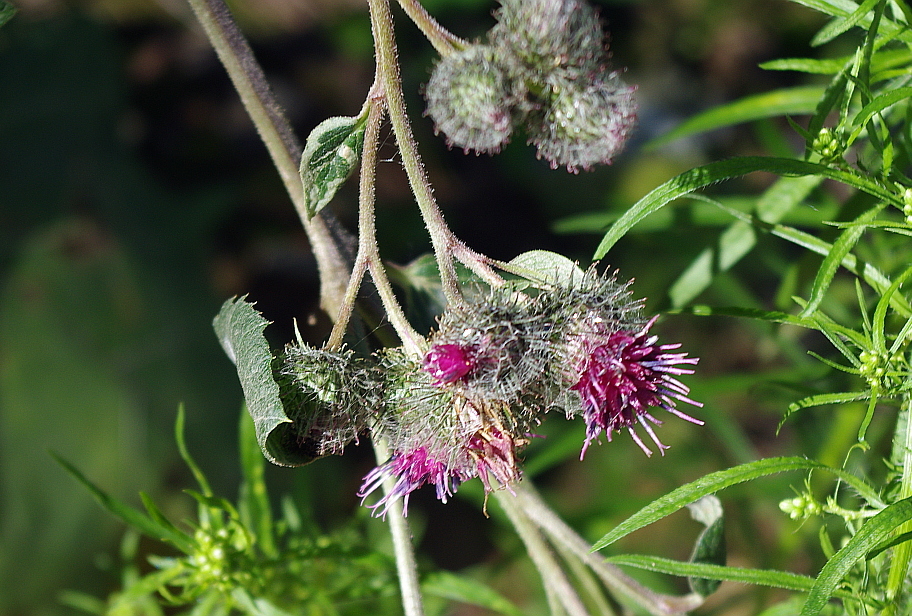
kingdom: Plantae
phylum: Tracheophyta
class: Magnoliopsida
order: Asterales
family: Asteraceae
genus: Arctium
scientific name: Arctium tomentosum
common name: Woolly burdock
